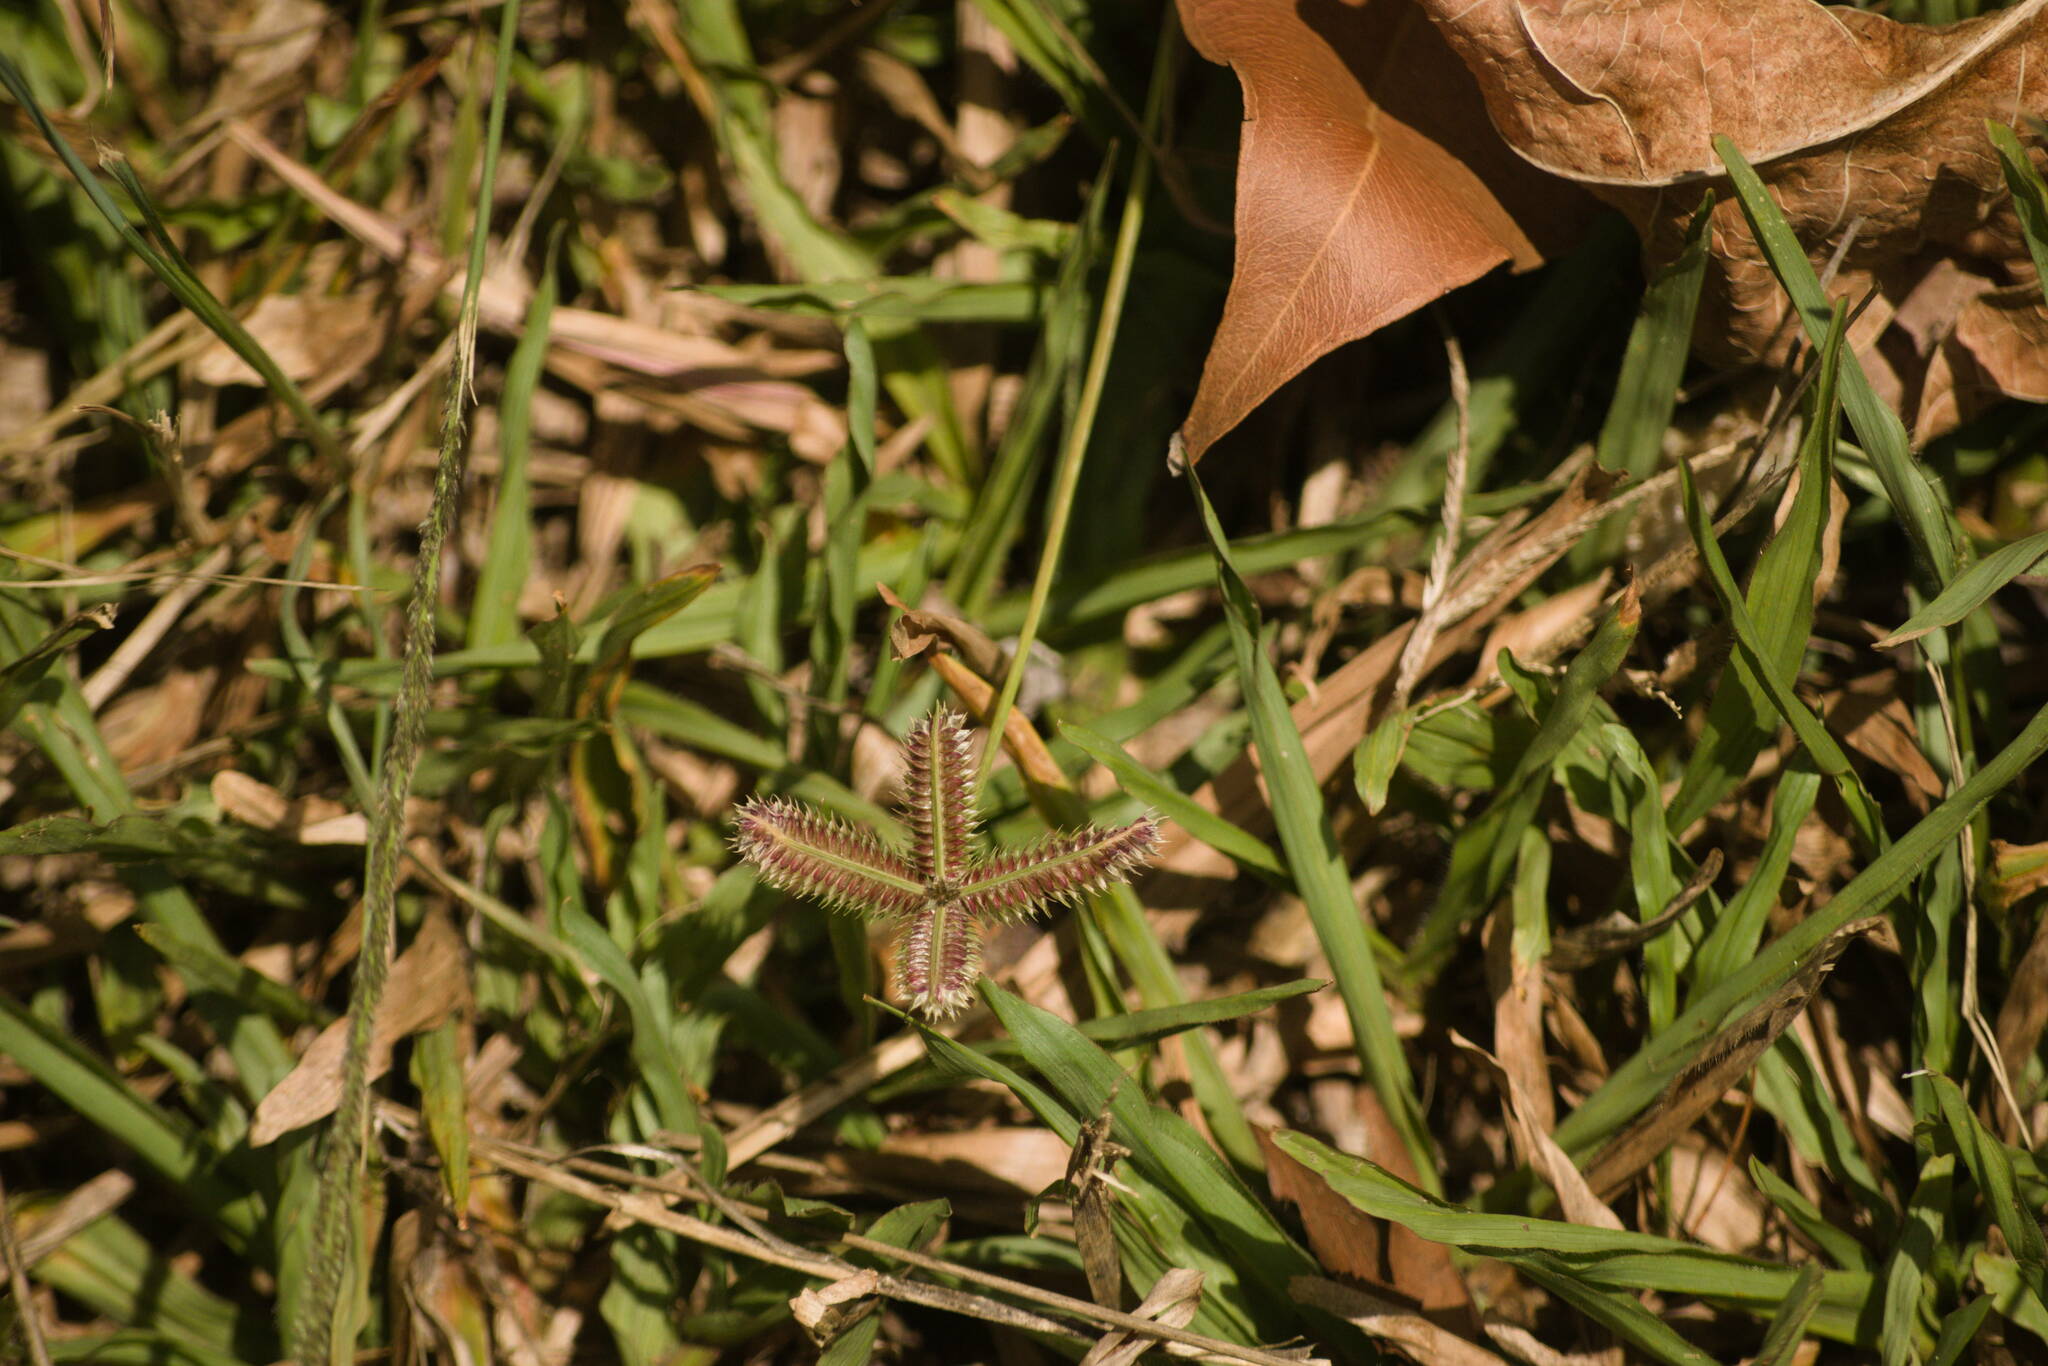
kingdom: Plantae
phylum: Tracheophyta
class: Liliopsida
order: Poales
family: Poaceae
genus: Dactyloctenium
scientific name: Dactyloctenium aegyptium
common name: Egyptian grass
